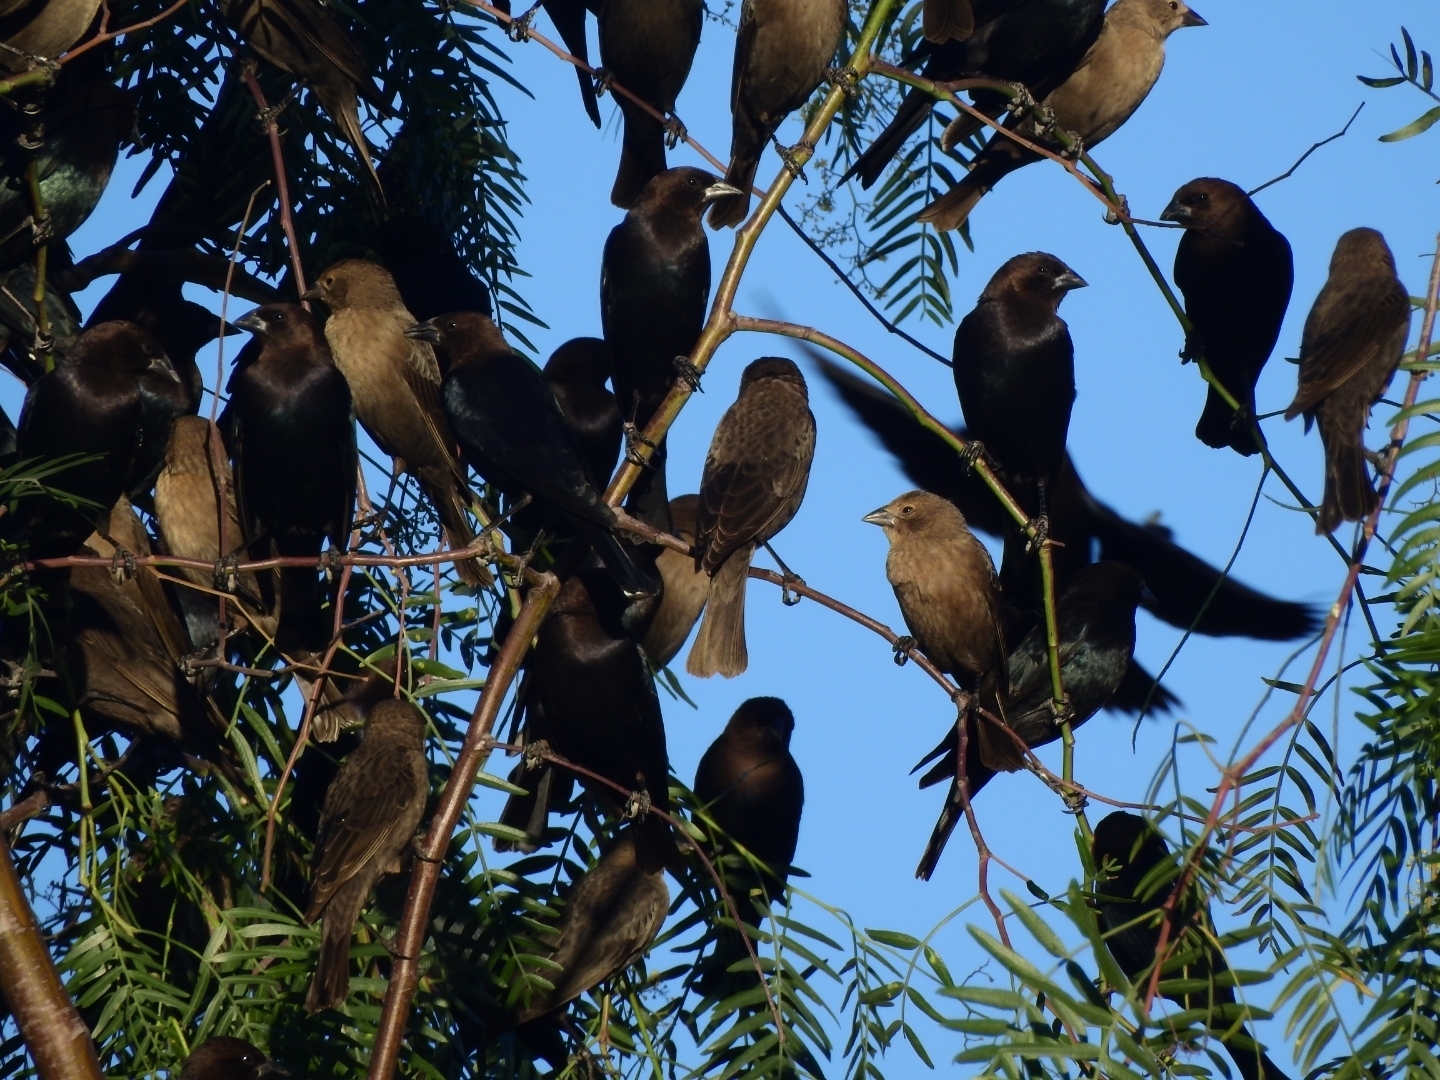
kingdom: Animalia
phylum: Chordata
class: Aves
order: Passeriformes
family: Icteridae
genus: Molothrus
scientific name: Molothrus ater
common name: Brown-headed cowbird
